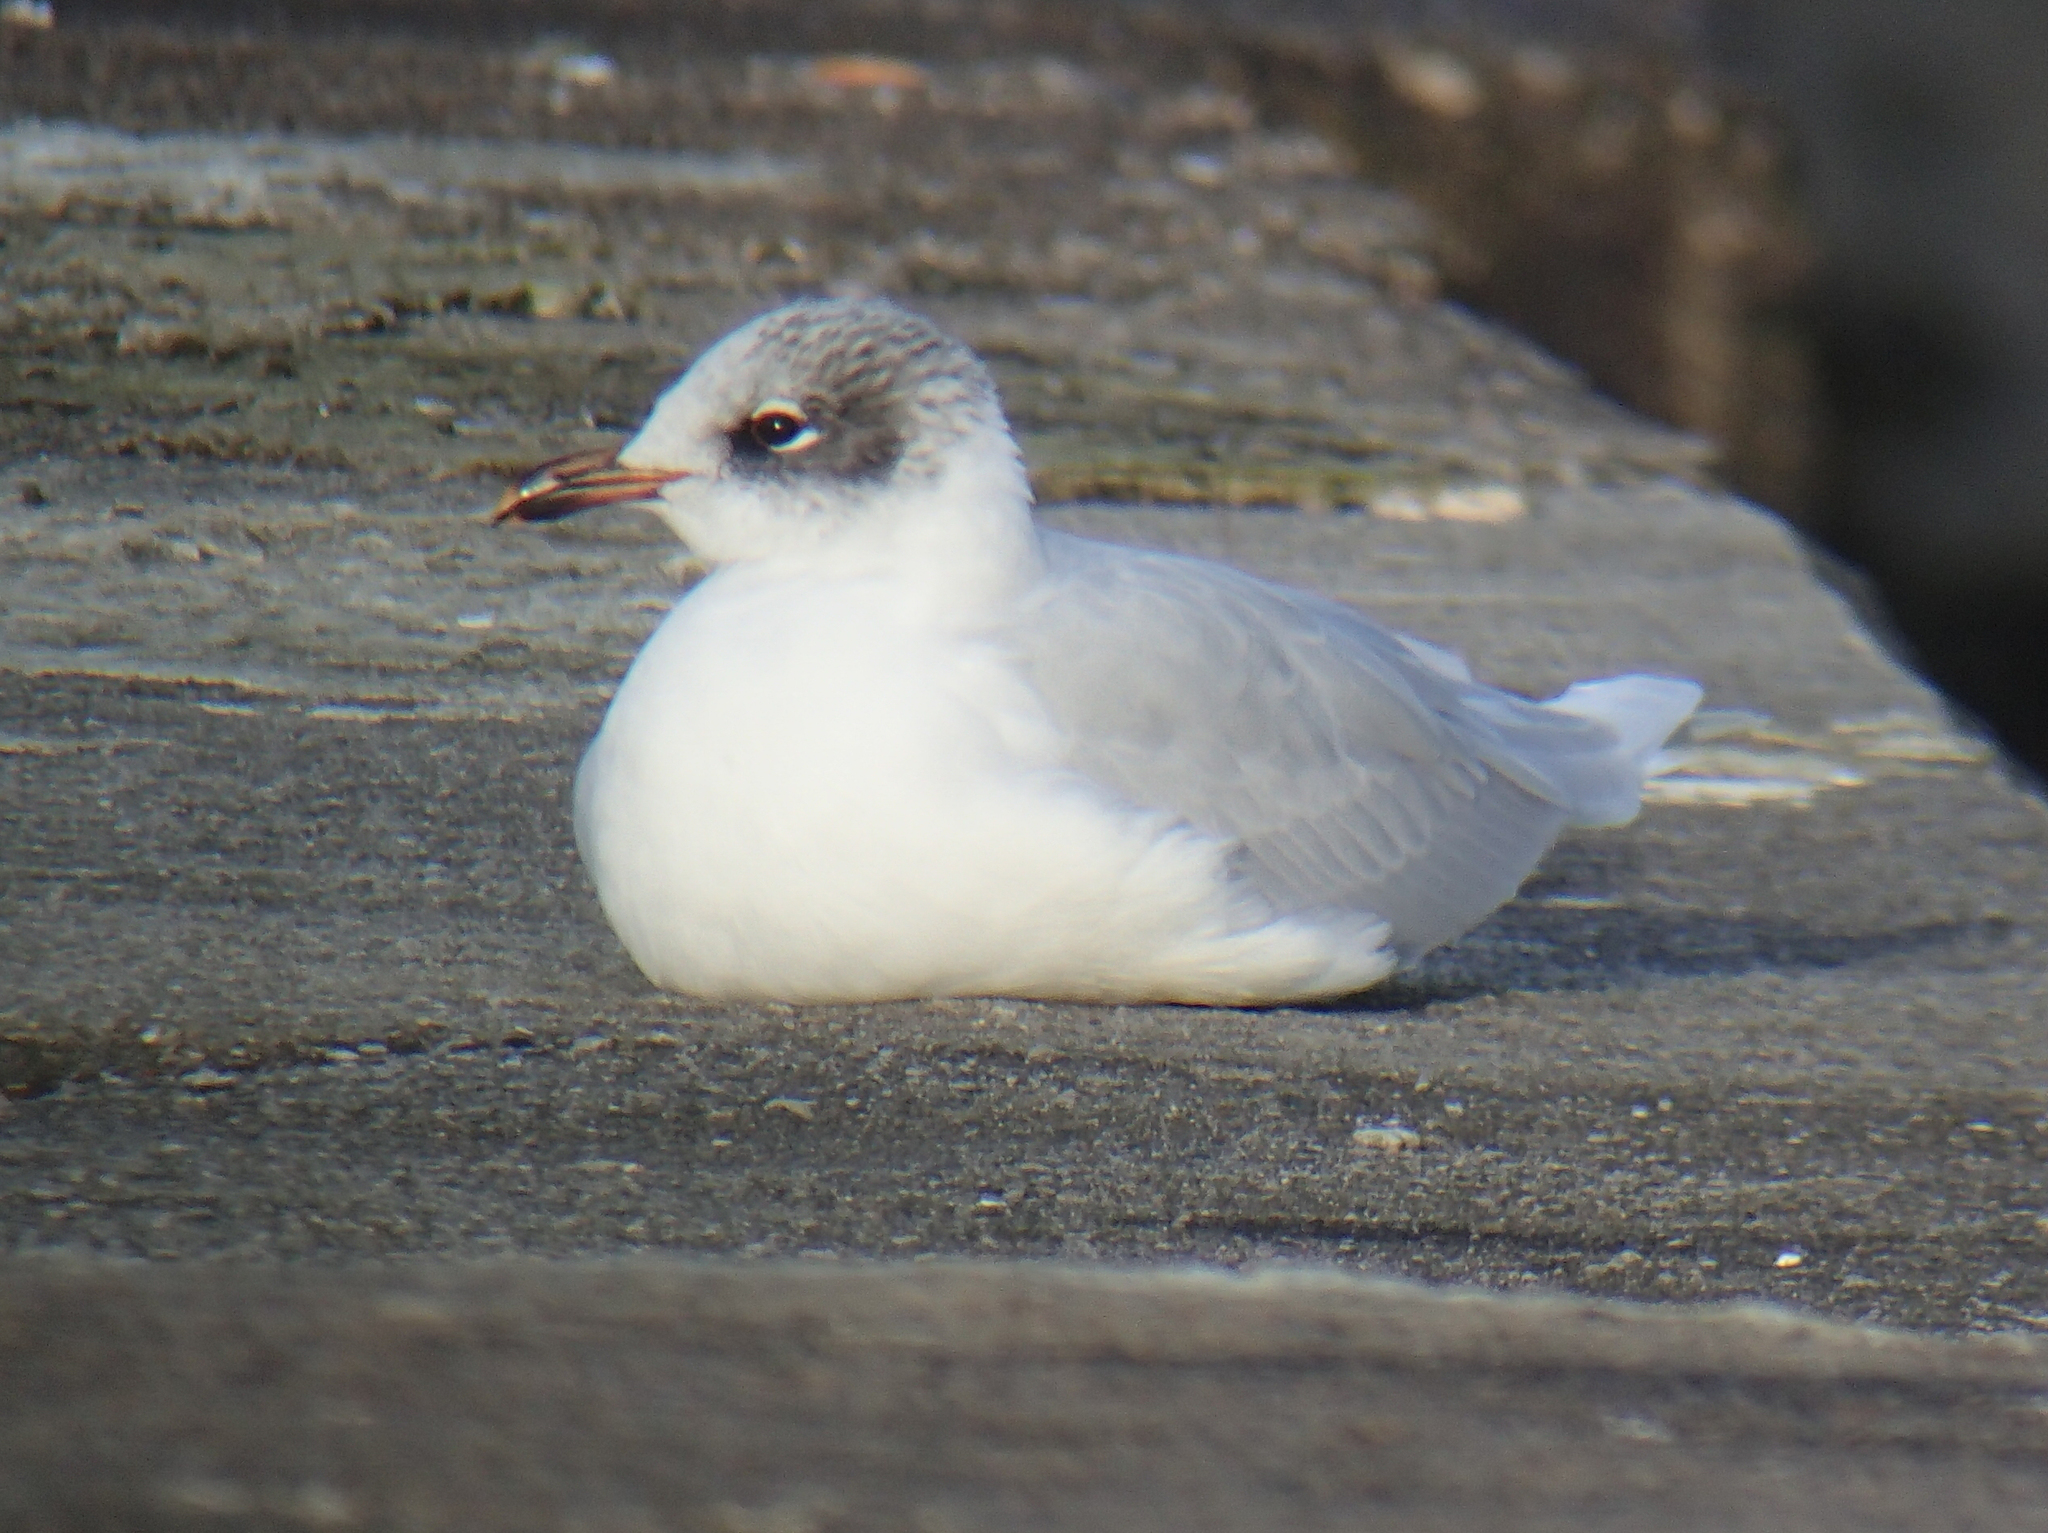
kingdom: Animalia
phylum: Chordata
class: Aves
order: Charadriiformes
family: Laridae
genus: Ichthyaetus
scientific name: Ichthyaetus melanocephalus
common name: Mediterranean gull
